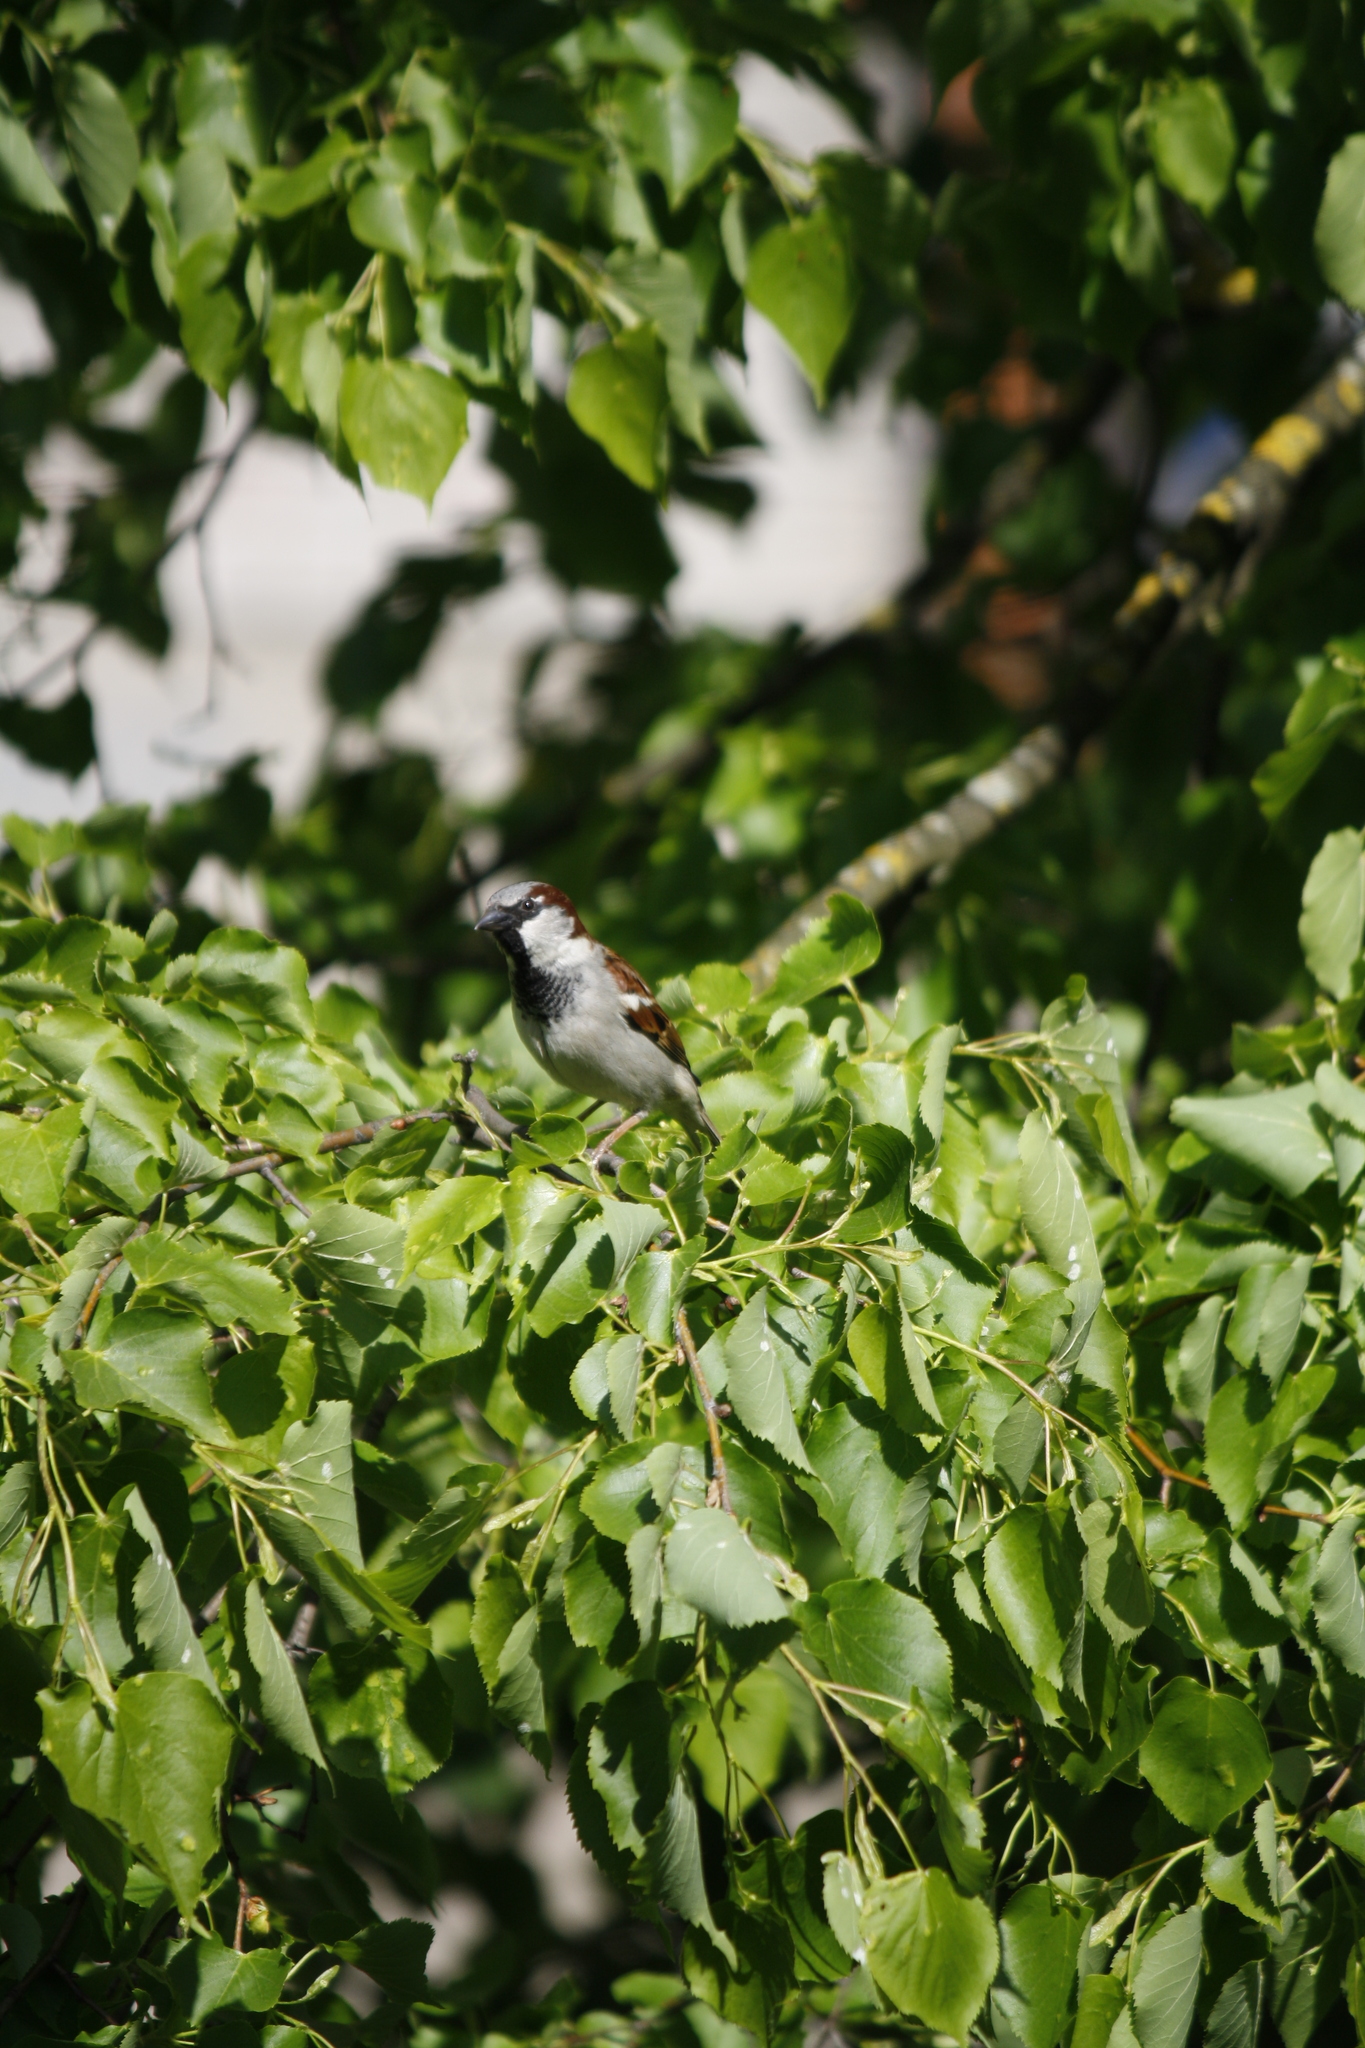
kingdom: Animalia
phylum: Chordata
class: Aves
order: Passeriformes
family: Passeridae
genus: Passer
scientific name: Passer domesticus
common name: House sparrow
